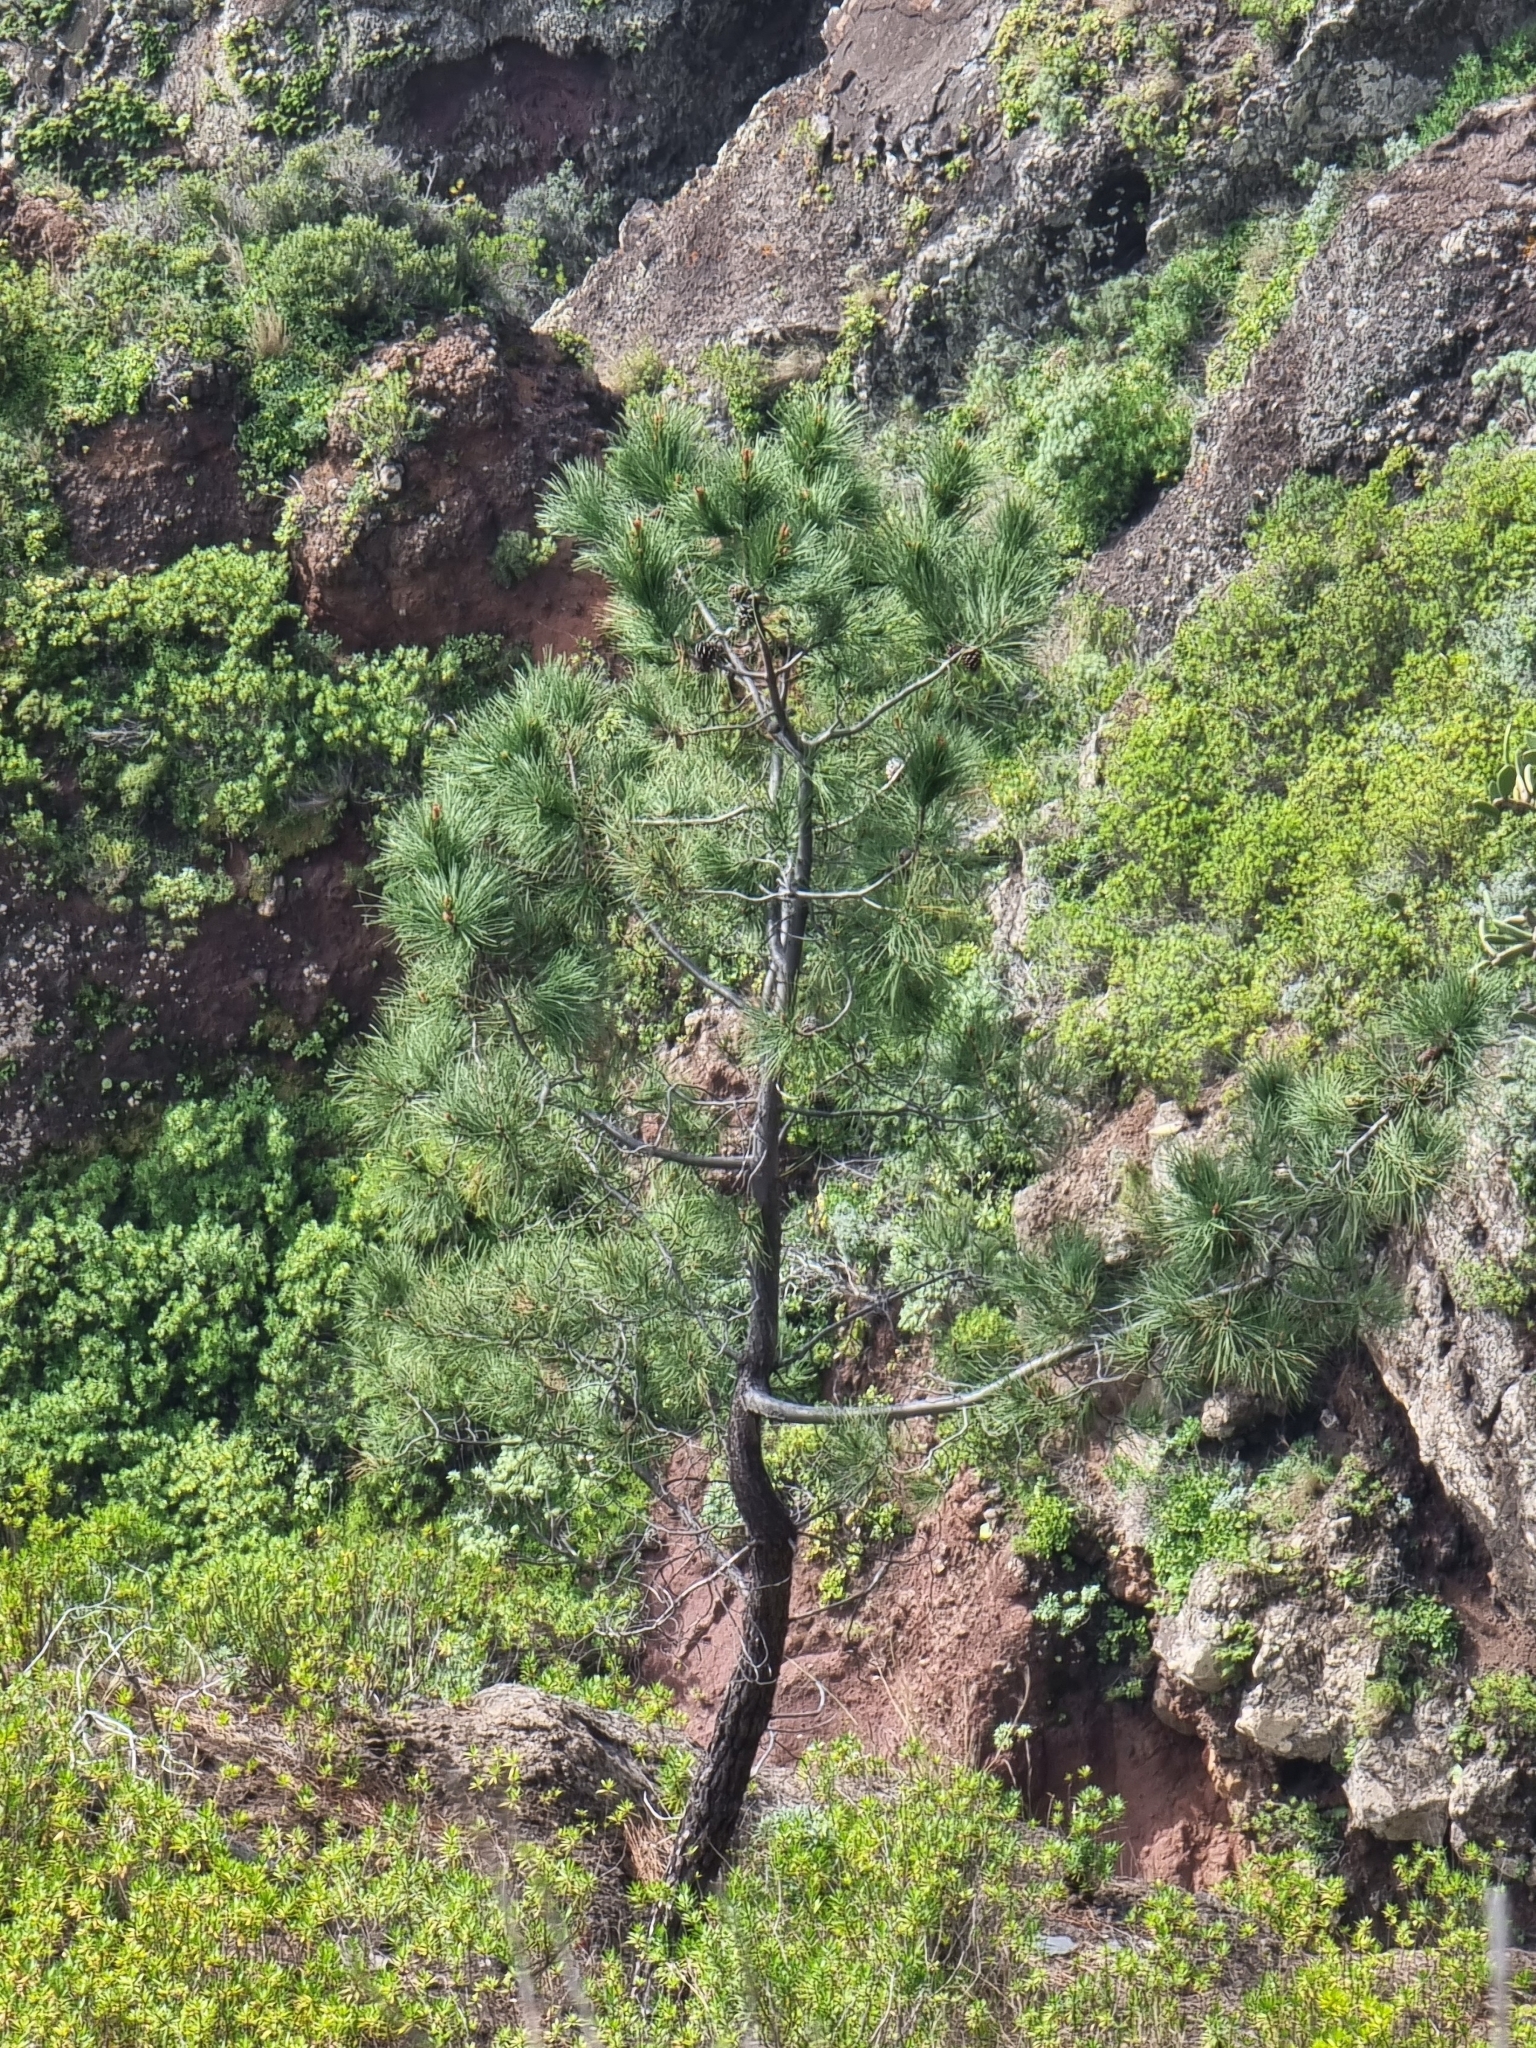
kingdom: Plantae
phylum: Tracheophyta
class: Pinopsida
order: Pinales
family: Pinaceae
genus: Pinus
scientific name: Pinus pinaster
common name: Maritime pine
